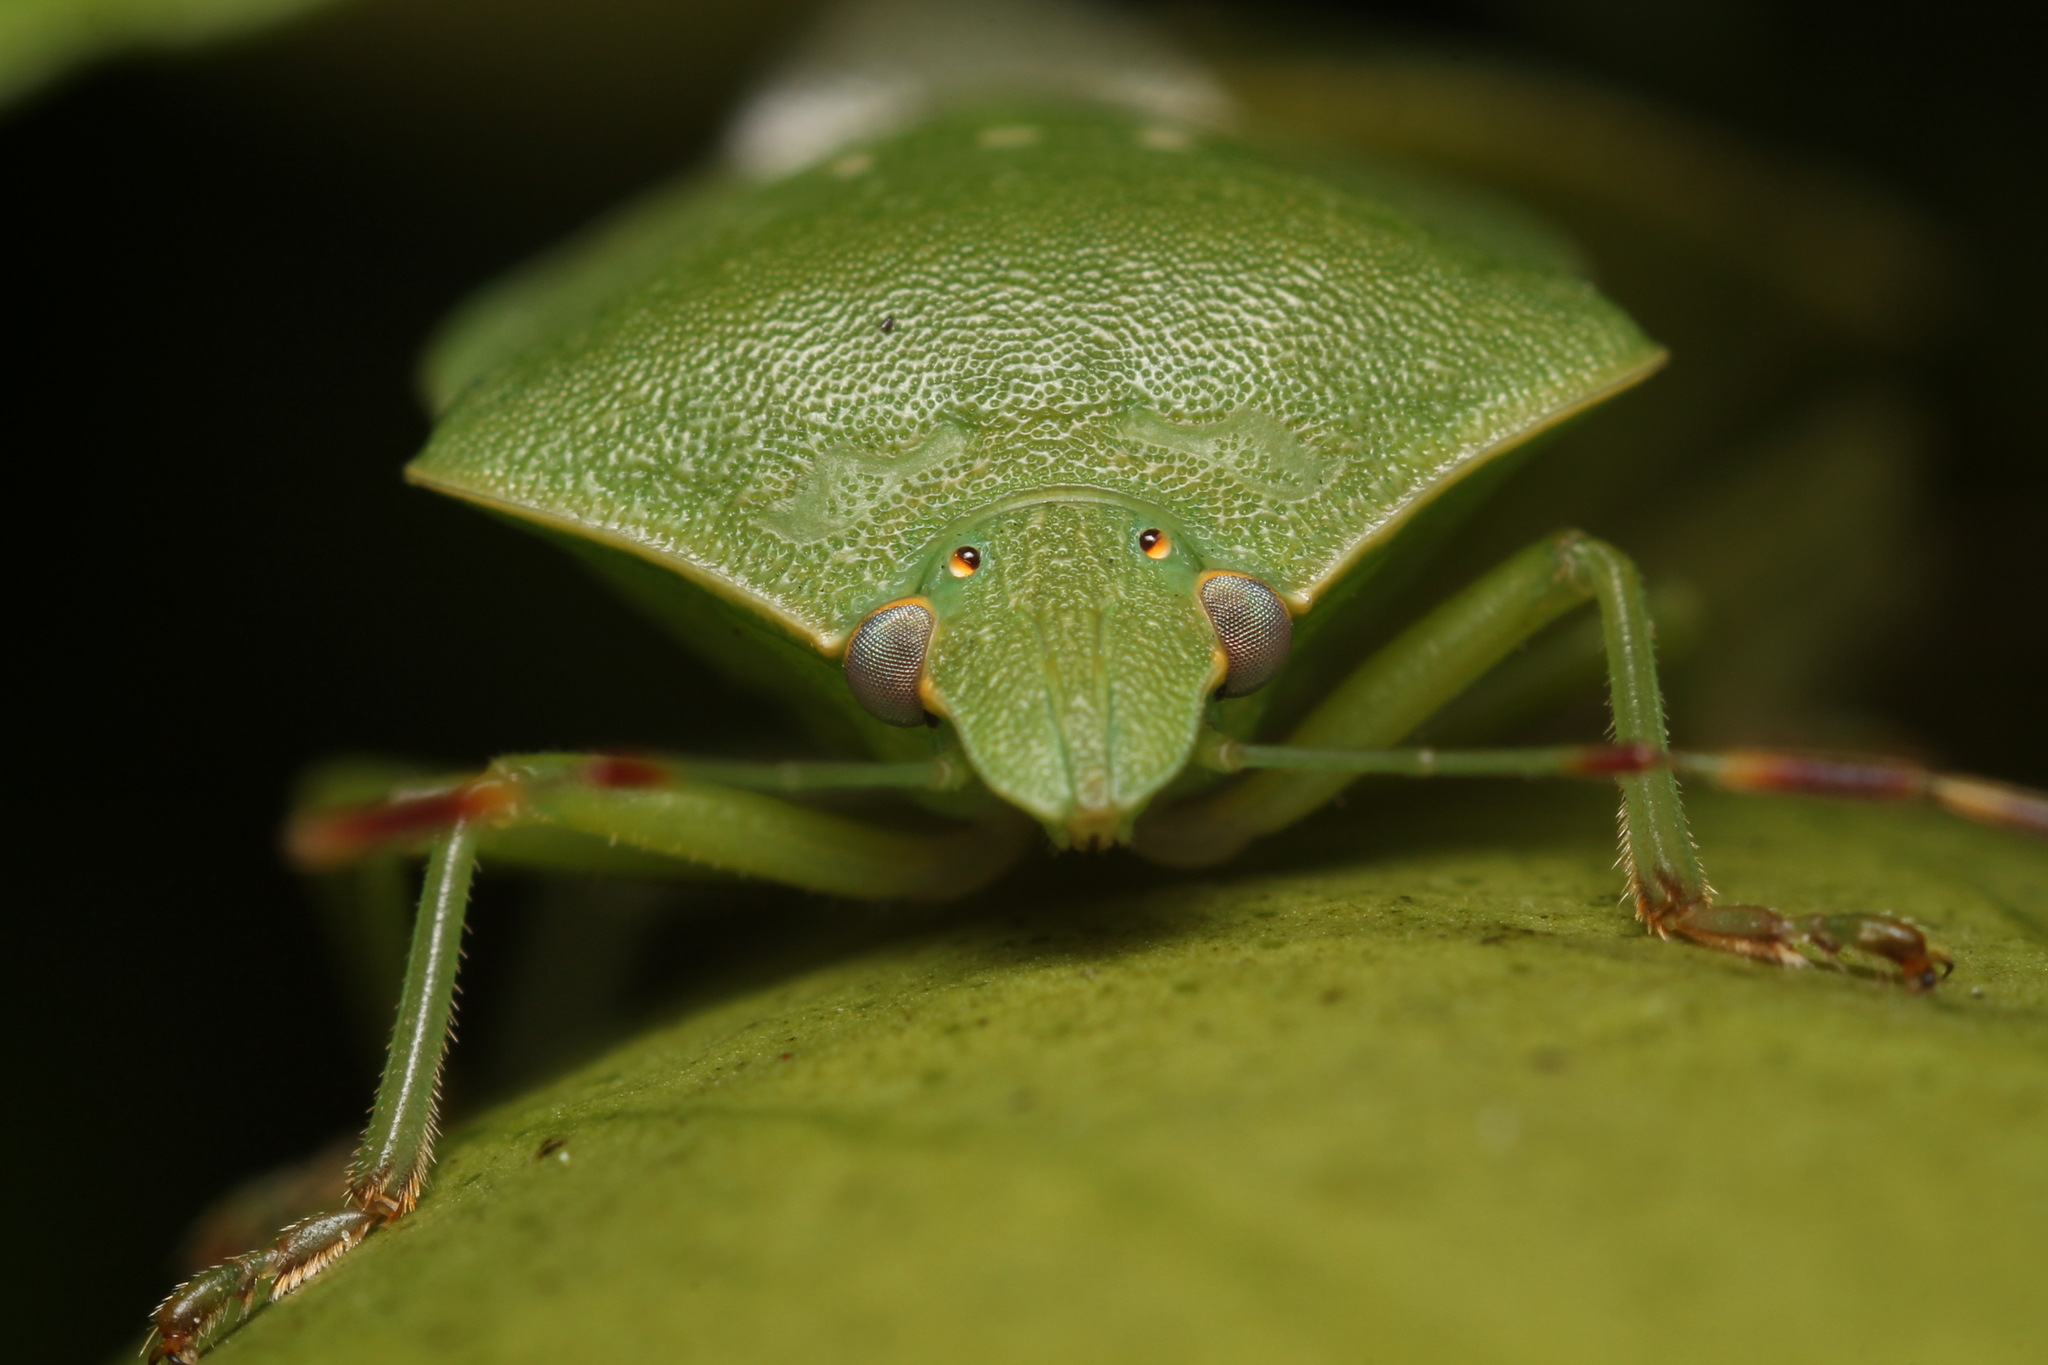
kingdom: Animalia
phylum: Arthropoda
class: Insecta
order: Hemiptera
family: Pentatomidae
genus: Nezara
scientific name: Nezara viridula
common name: Southern green stink bug
